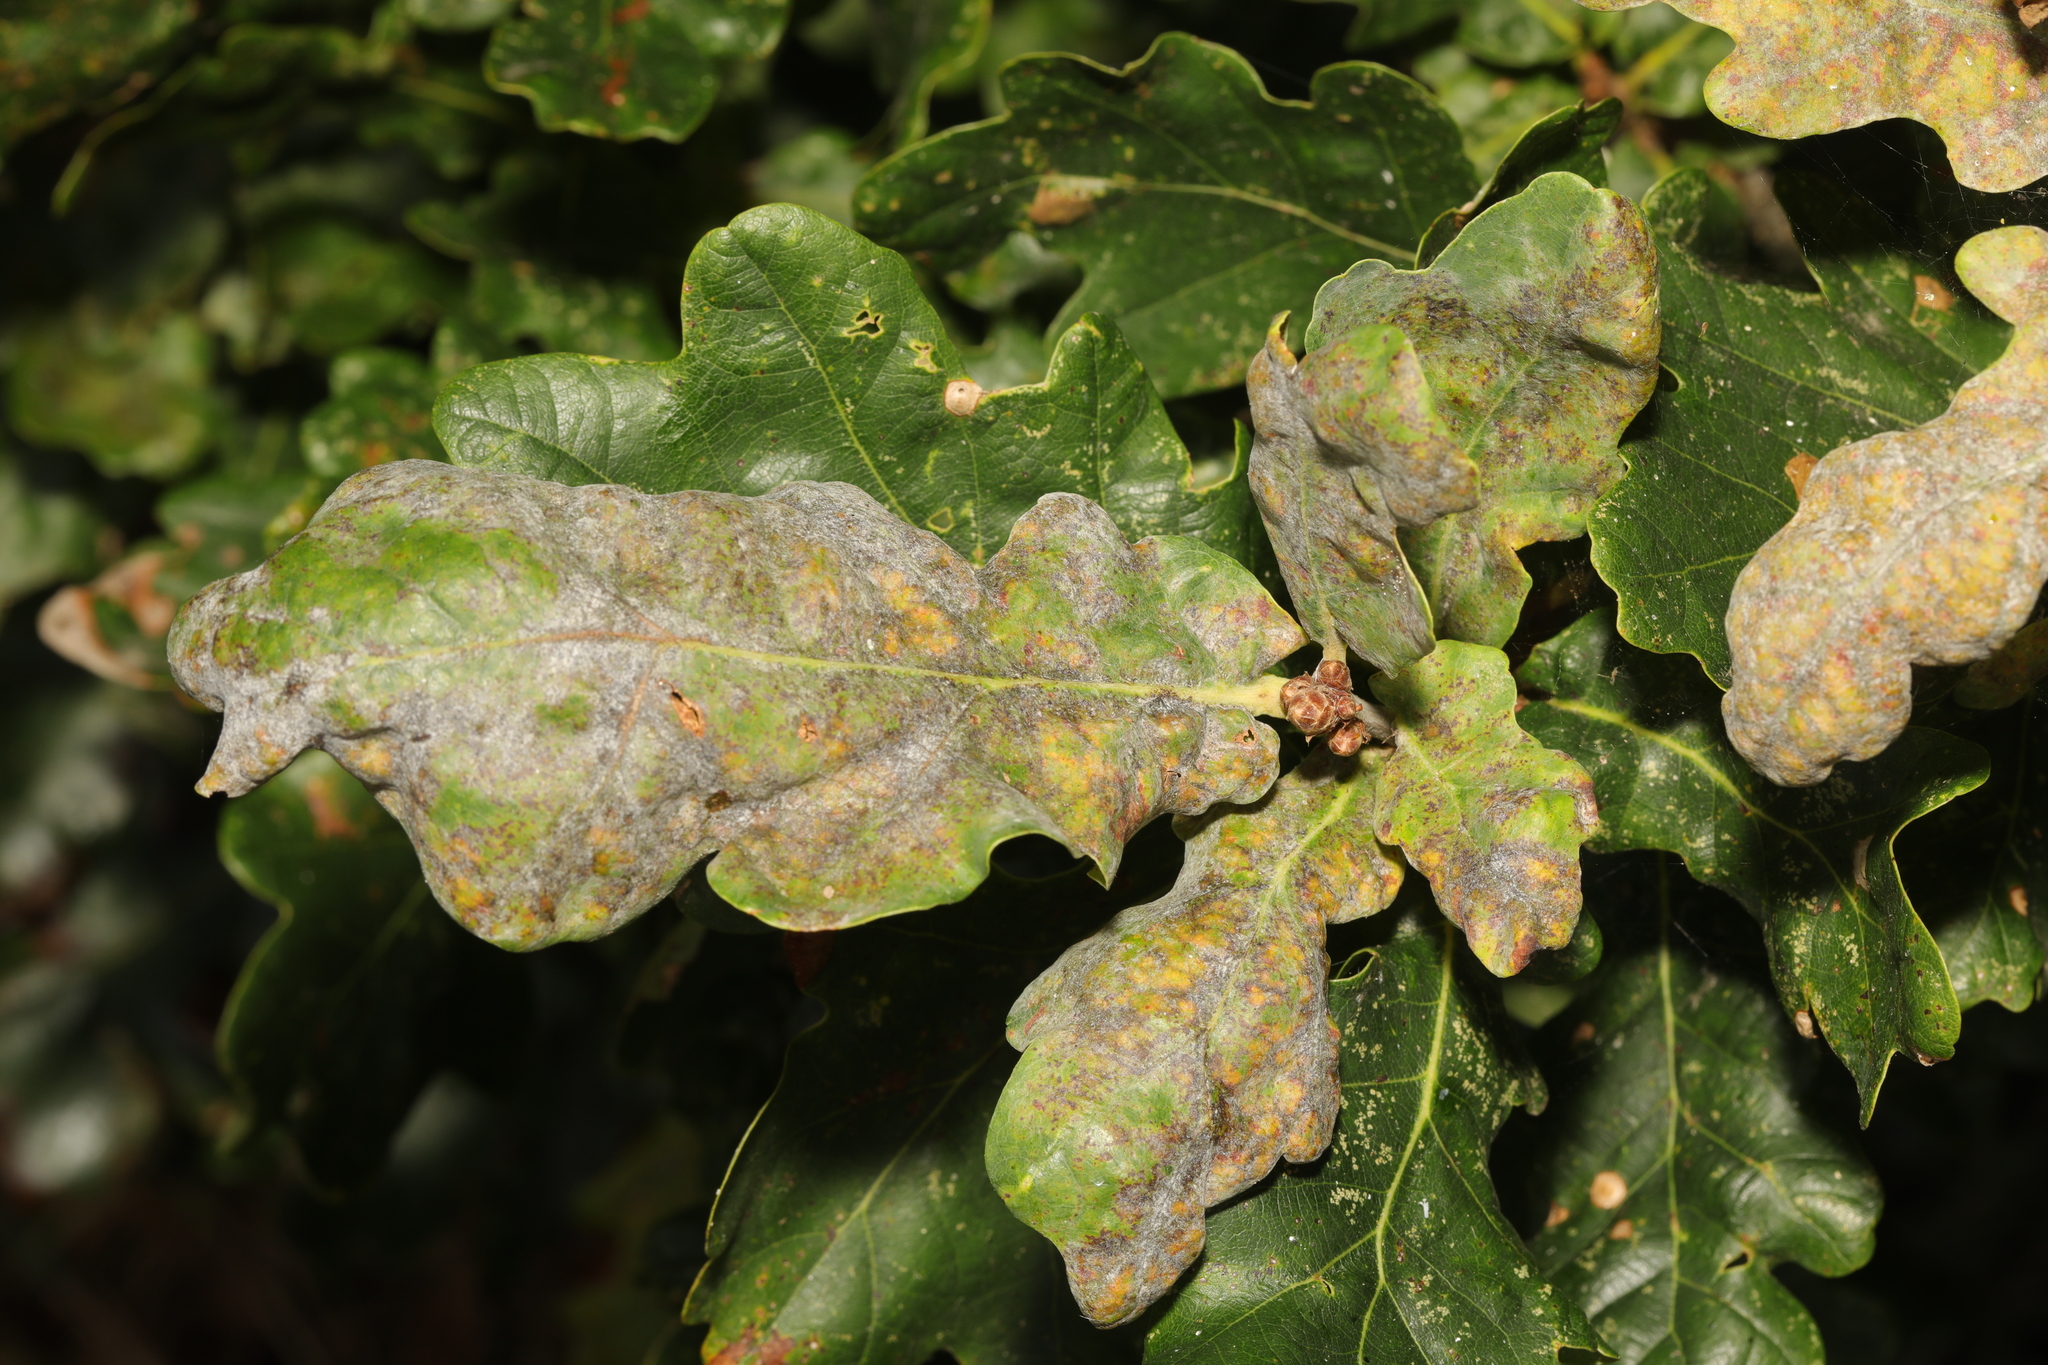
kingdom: Fungi
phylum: Ascomycota
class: Leotiomycetes
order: Helotiales
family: Erysiphaceae
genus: Erysiphe
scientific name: Erysiphe alphitoides
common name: Oak mildew
